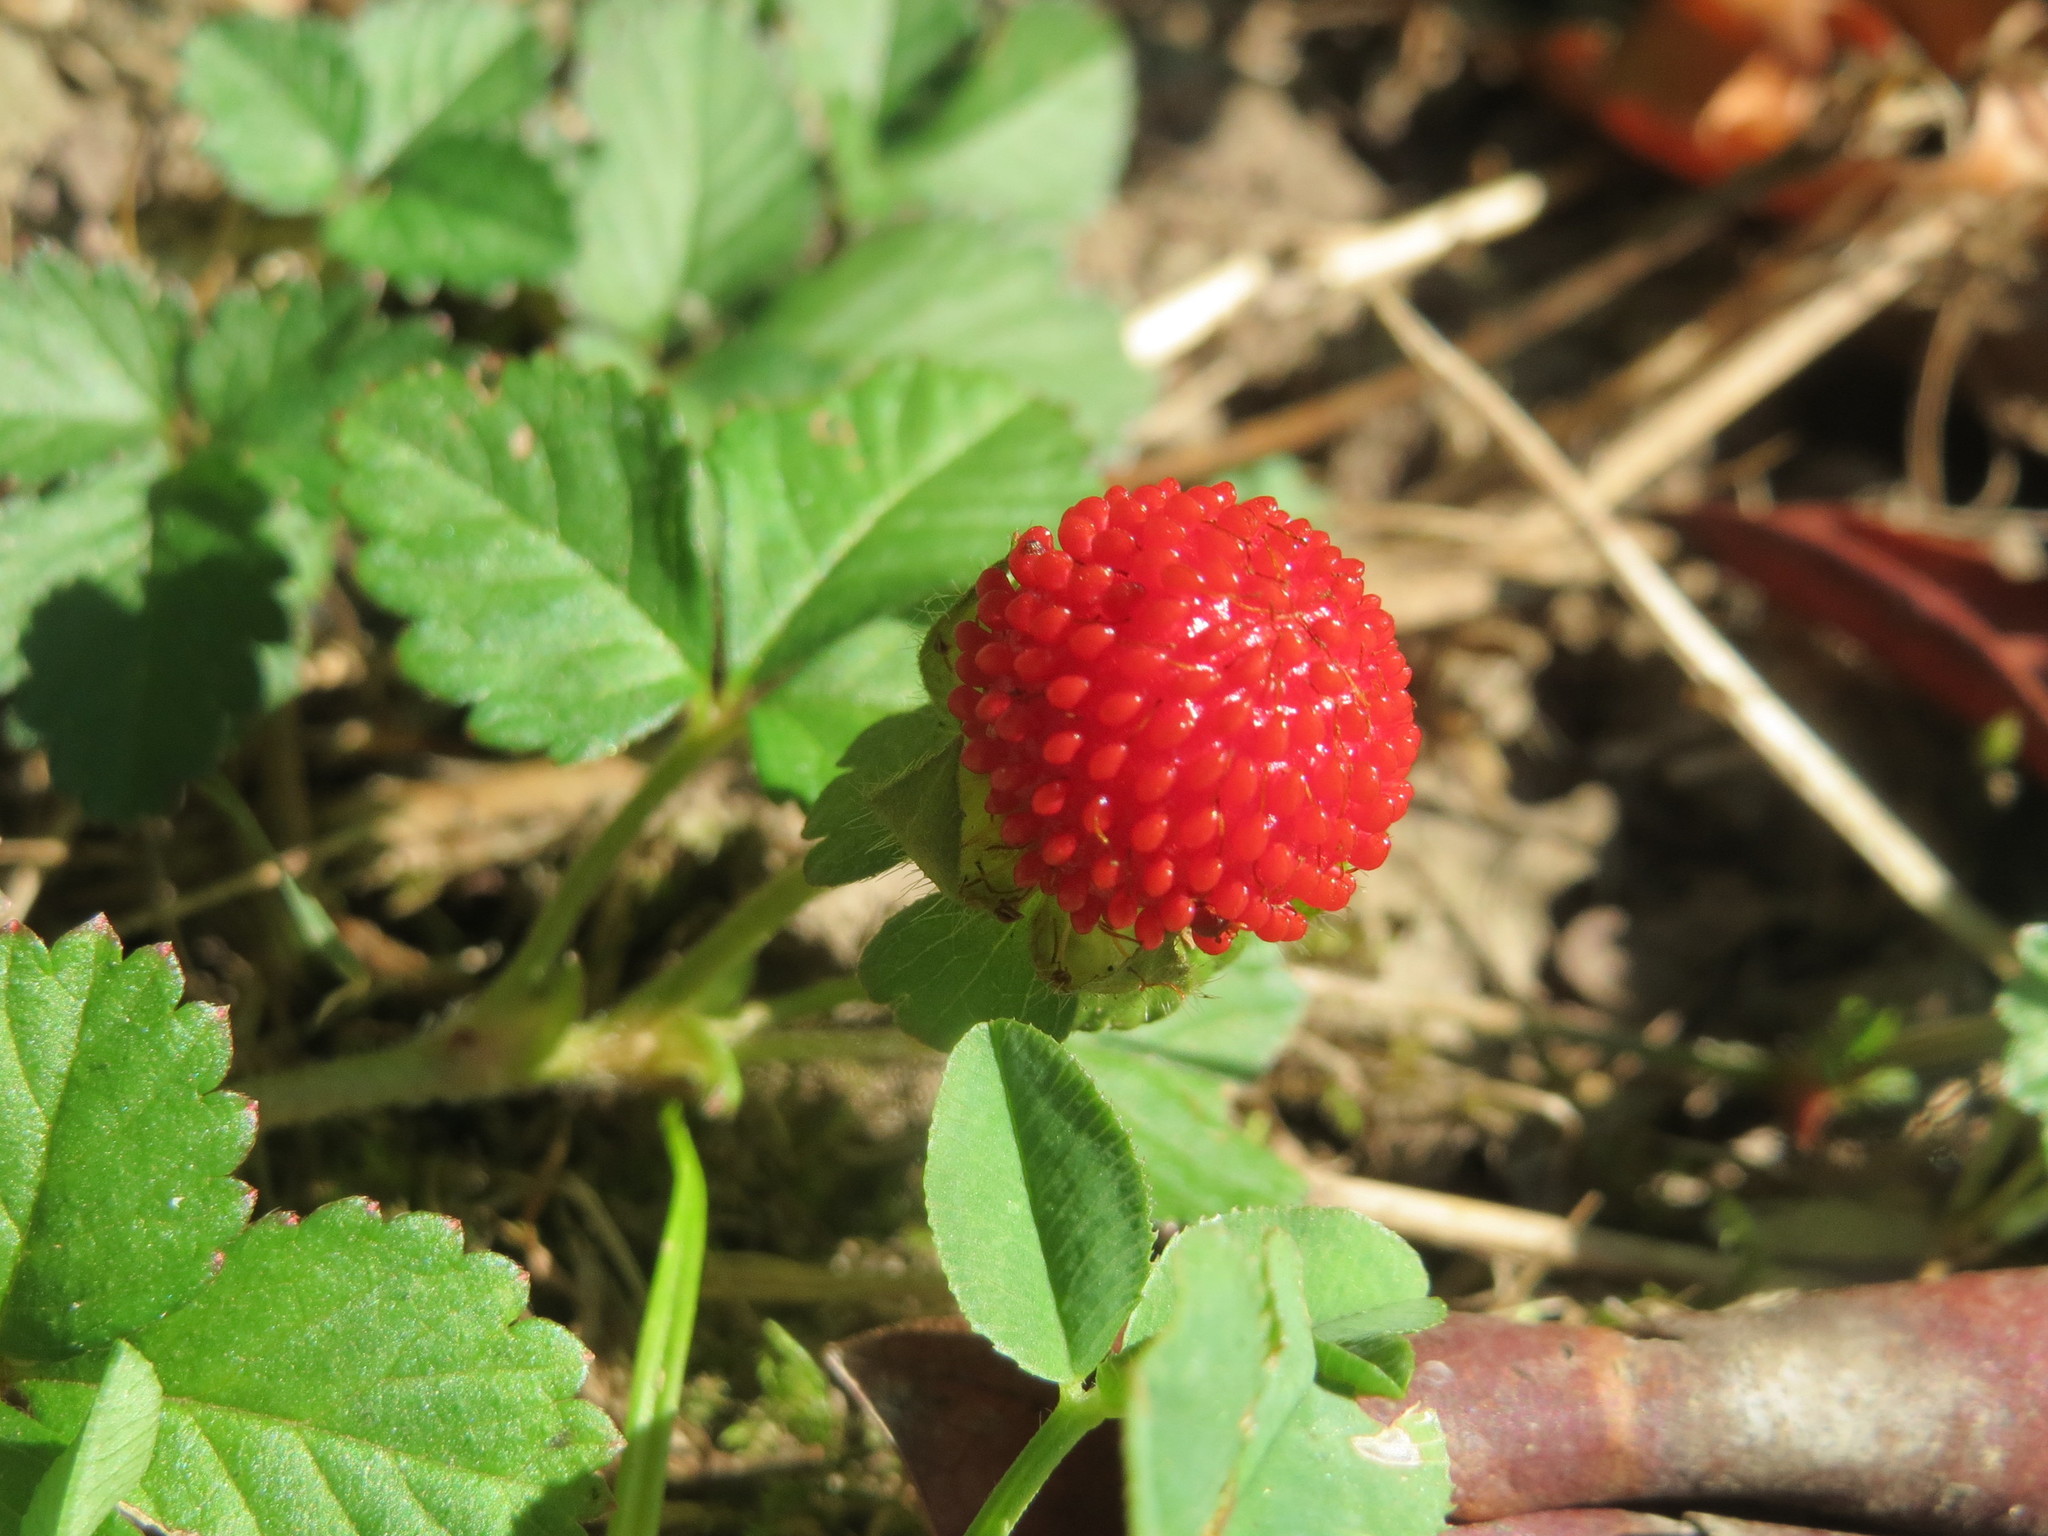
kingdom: Plantae
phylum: Tracheophyta
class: Magnoliopsida
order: Rosales
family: Rosaceae
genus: Potentilla
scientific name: Potentilla indica
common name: Yellow-flowered strawberry
